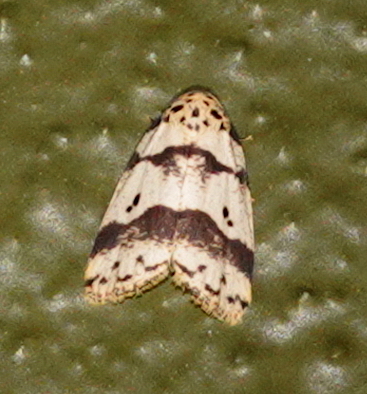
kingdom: Animalia
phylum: Arthropoda
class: Insecta
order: Lepidoptera
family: Erebidae
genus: Eugoa
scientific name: Eugoa trifasciella
